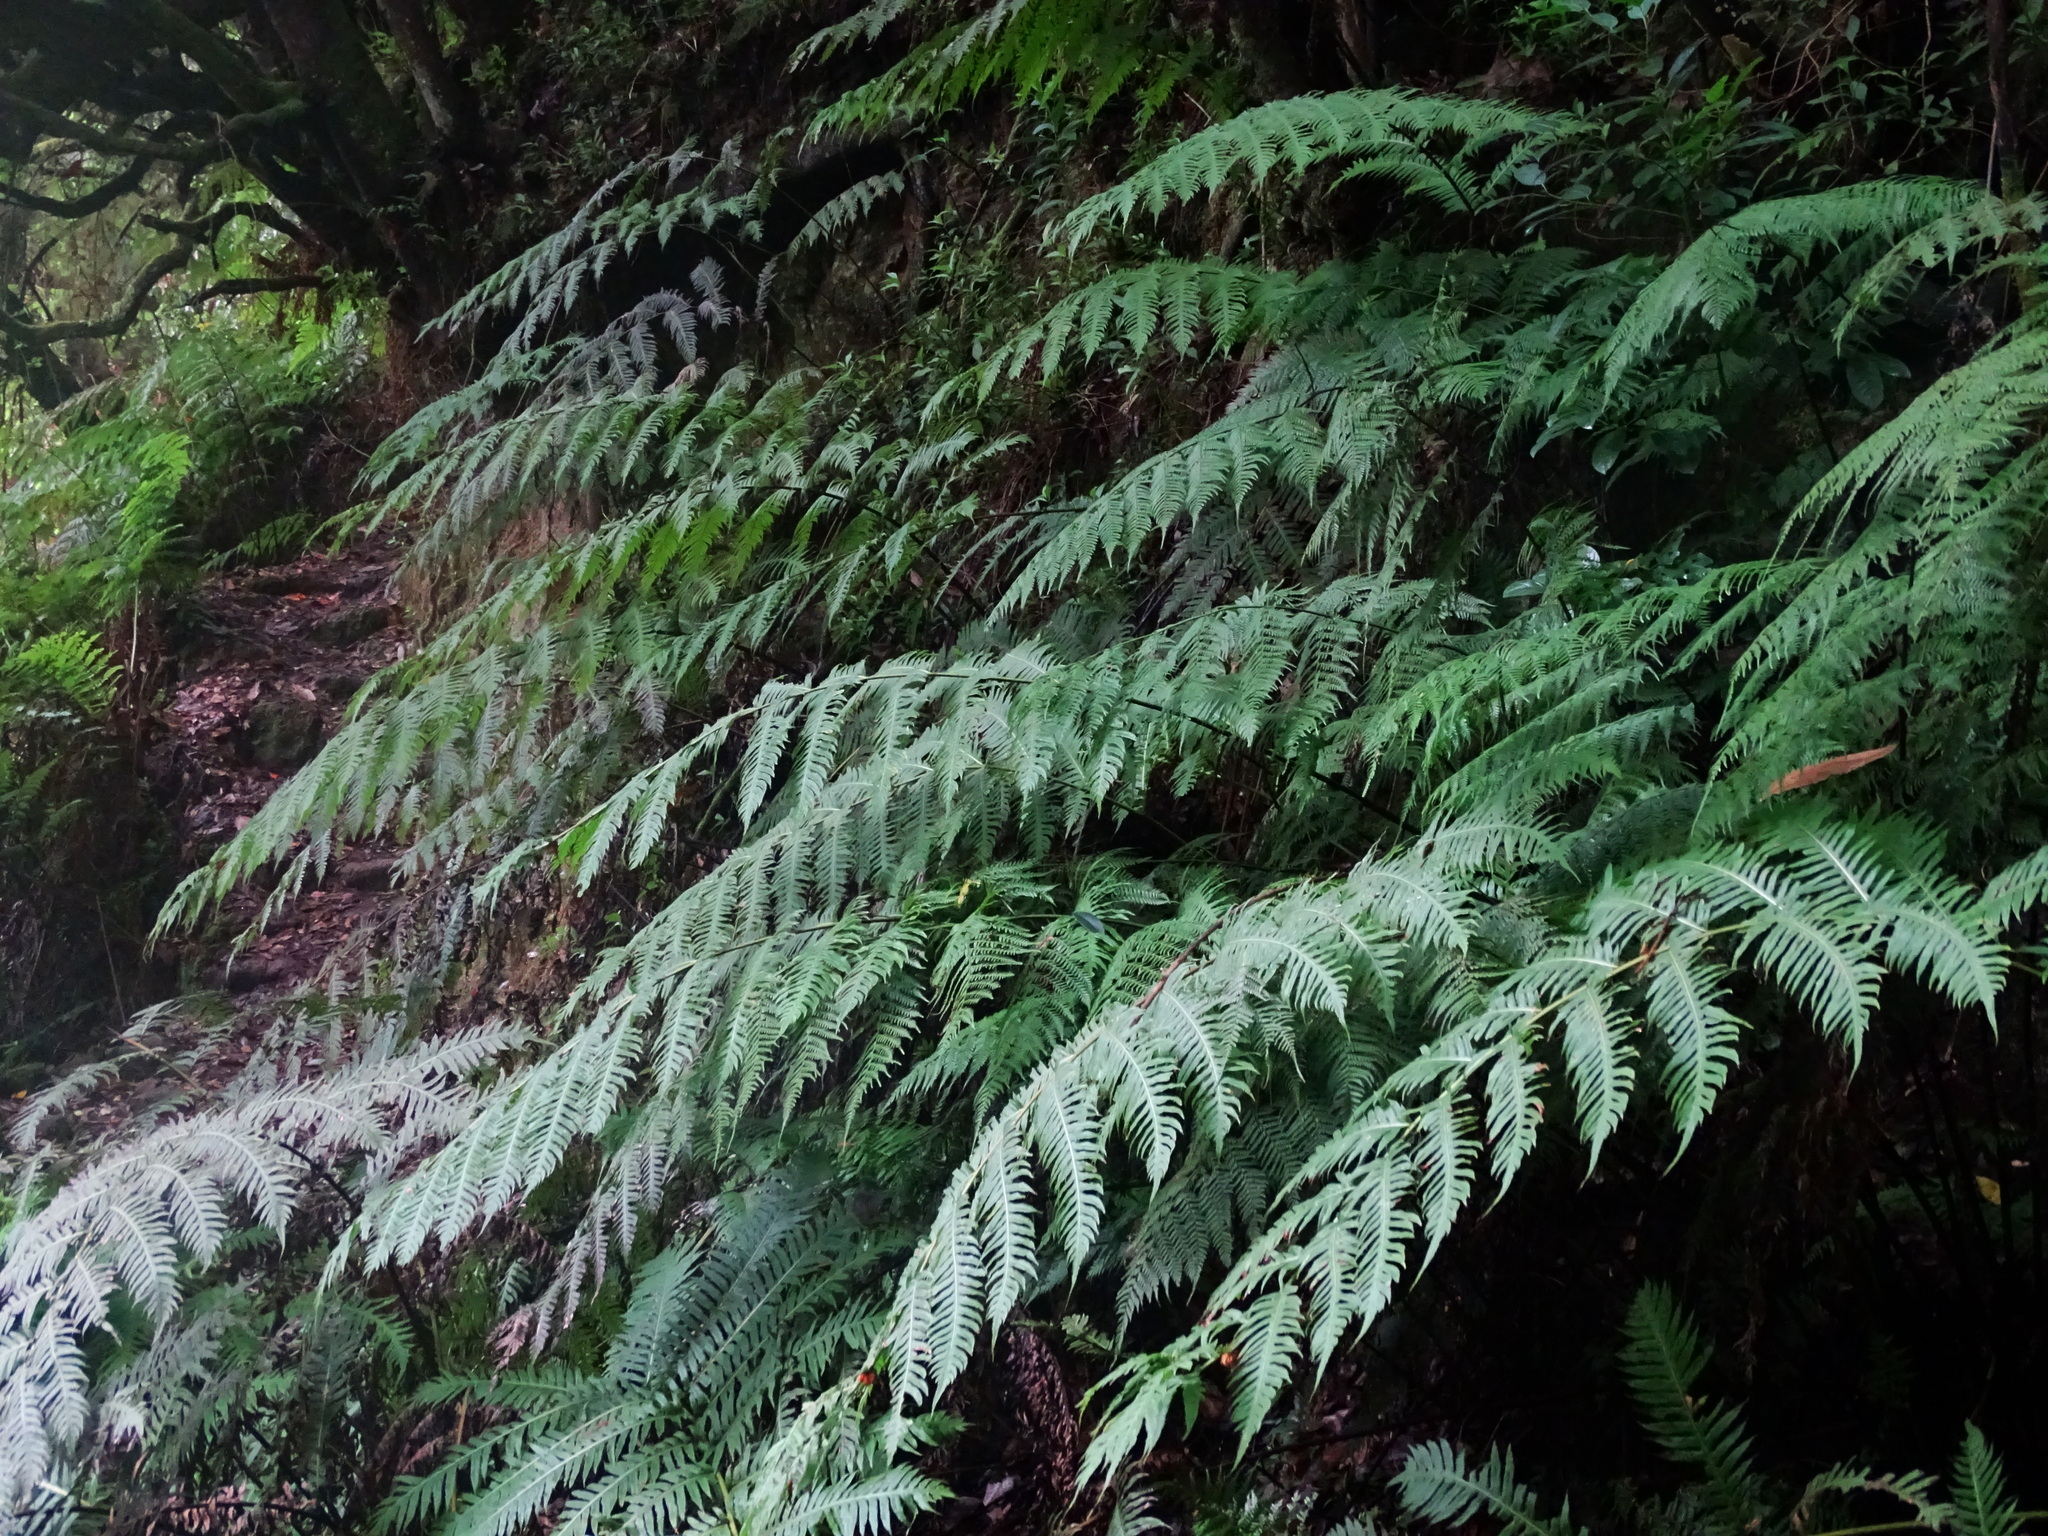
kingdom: Plantae
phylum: Tracheophyta
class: Polypodiopsida
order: Polypodiales
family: Blechnaceae
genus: Woodwardia
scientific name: Woodwardia radicans
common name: Rooting chainfern
